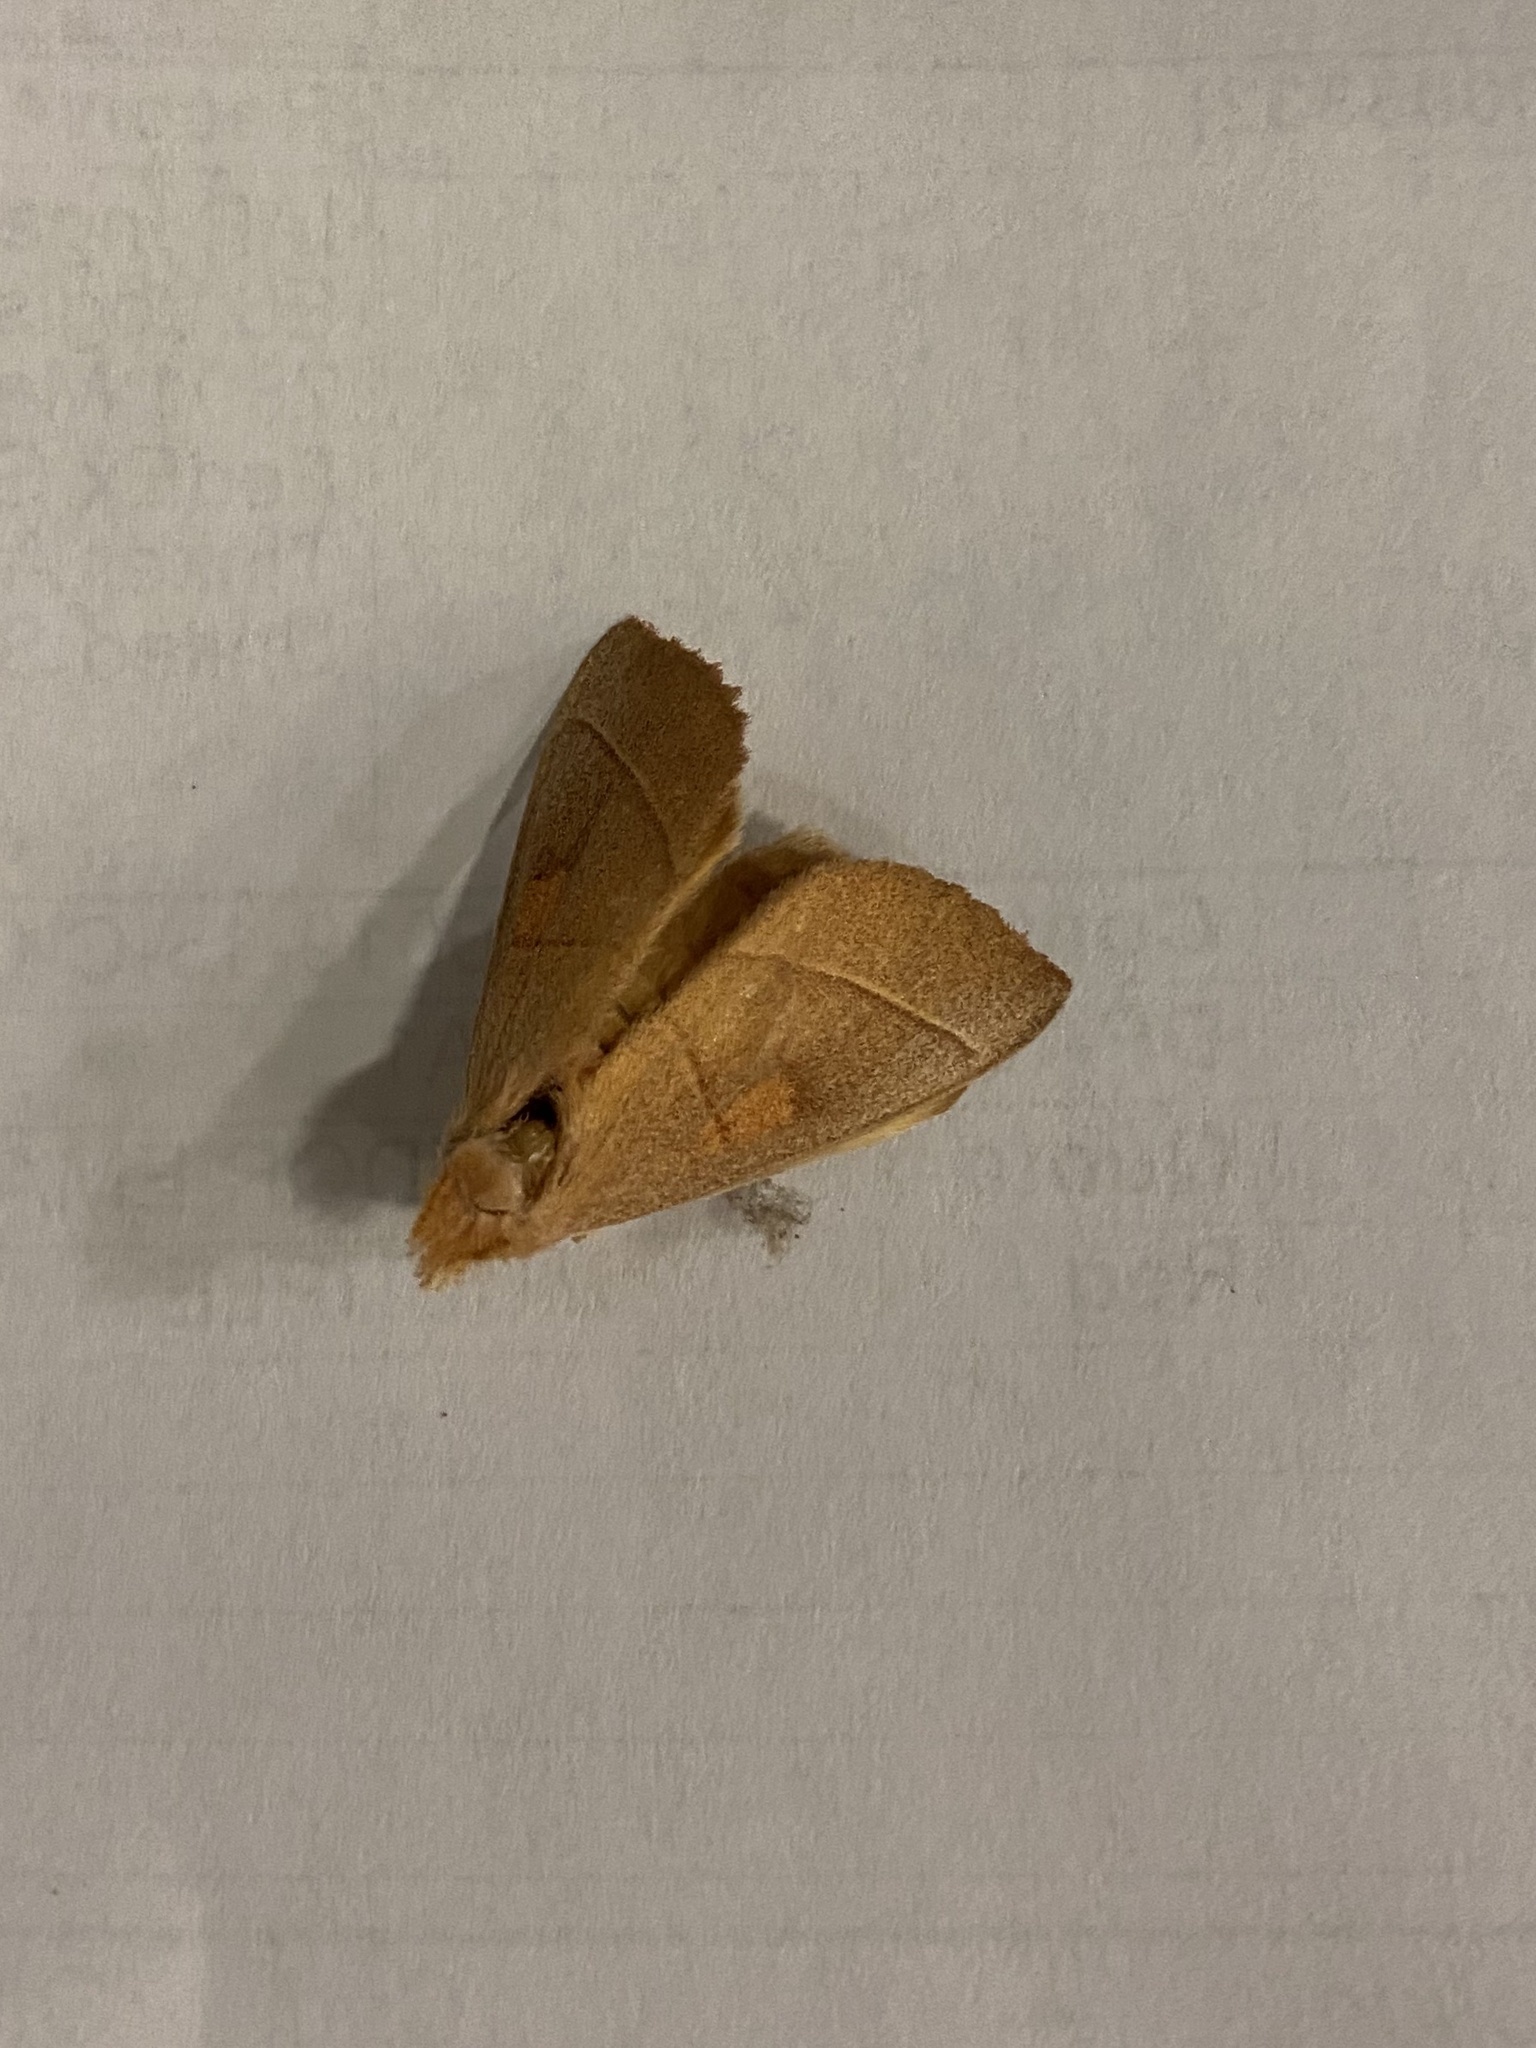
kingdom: Animalia
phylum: Arthropoda
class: Insecta
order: Lepidoptera
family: Notodontidae
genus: Nadata
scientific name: Nadata gibbosa
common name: White-dotted prominent
